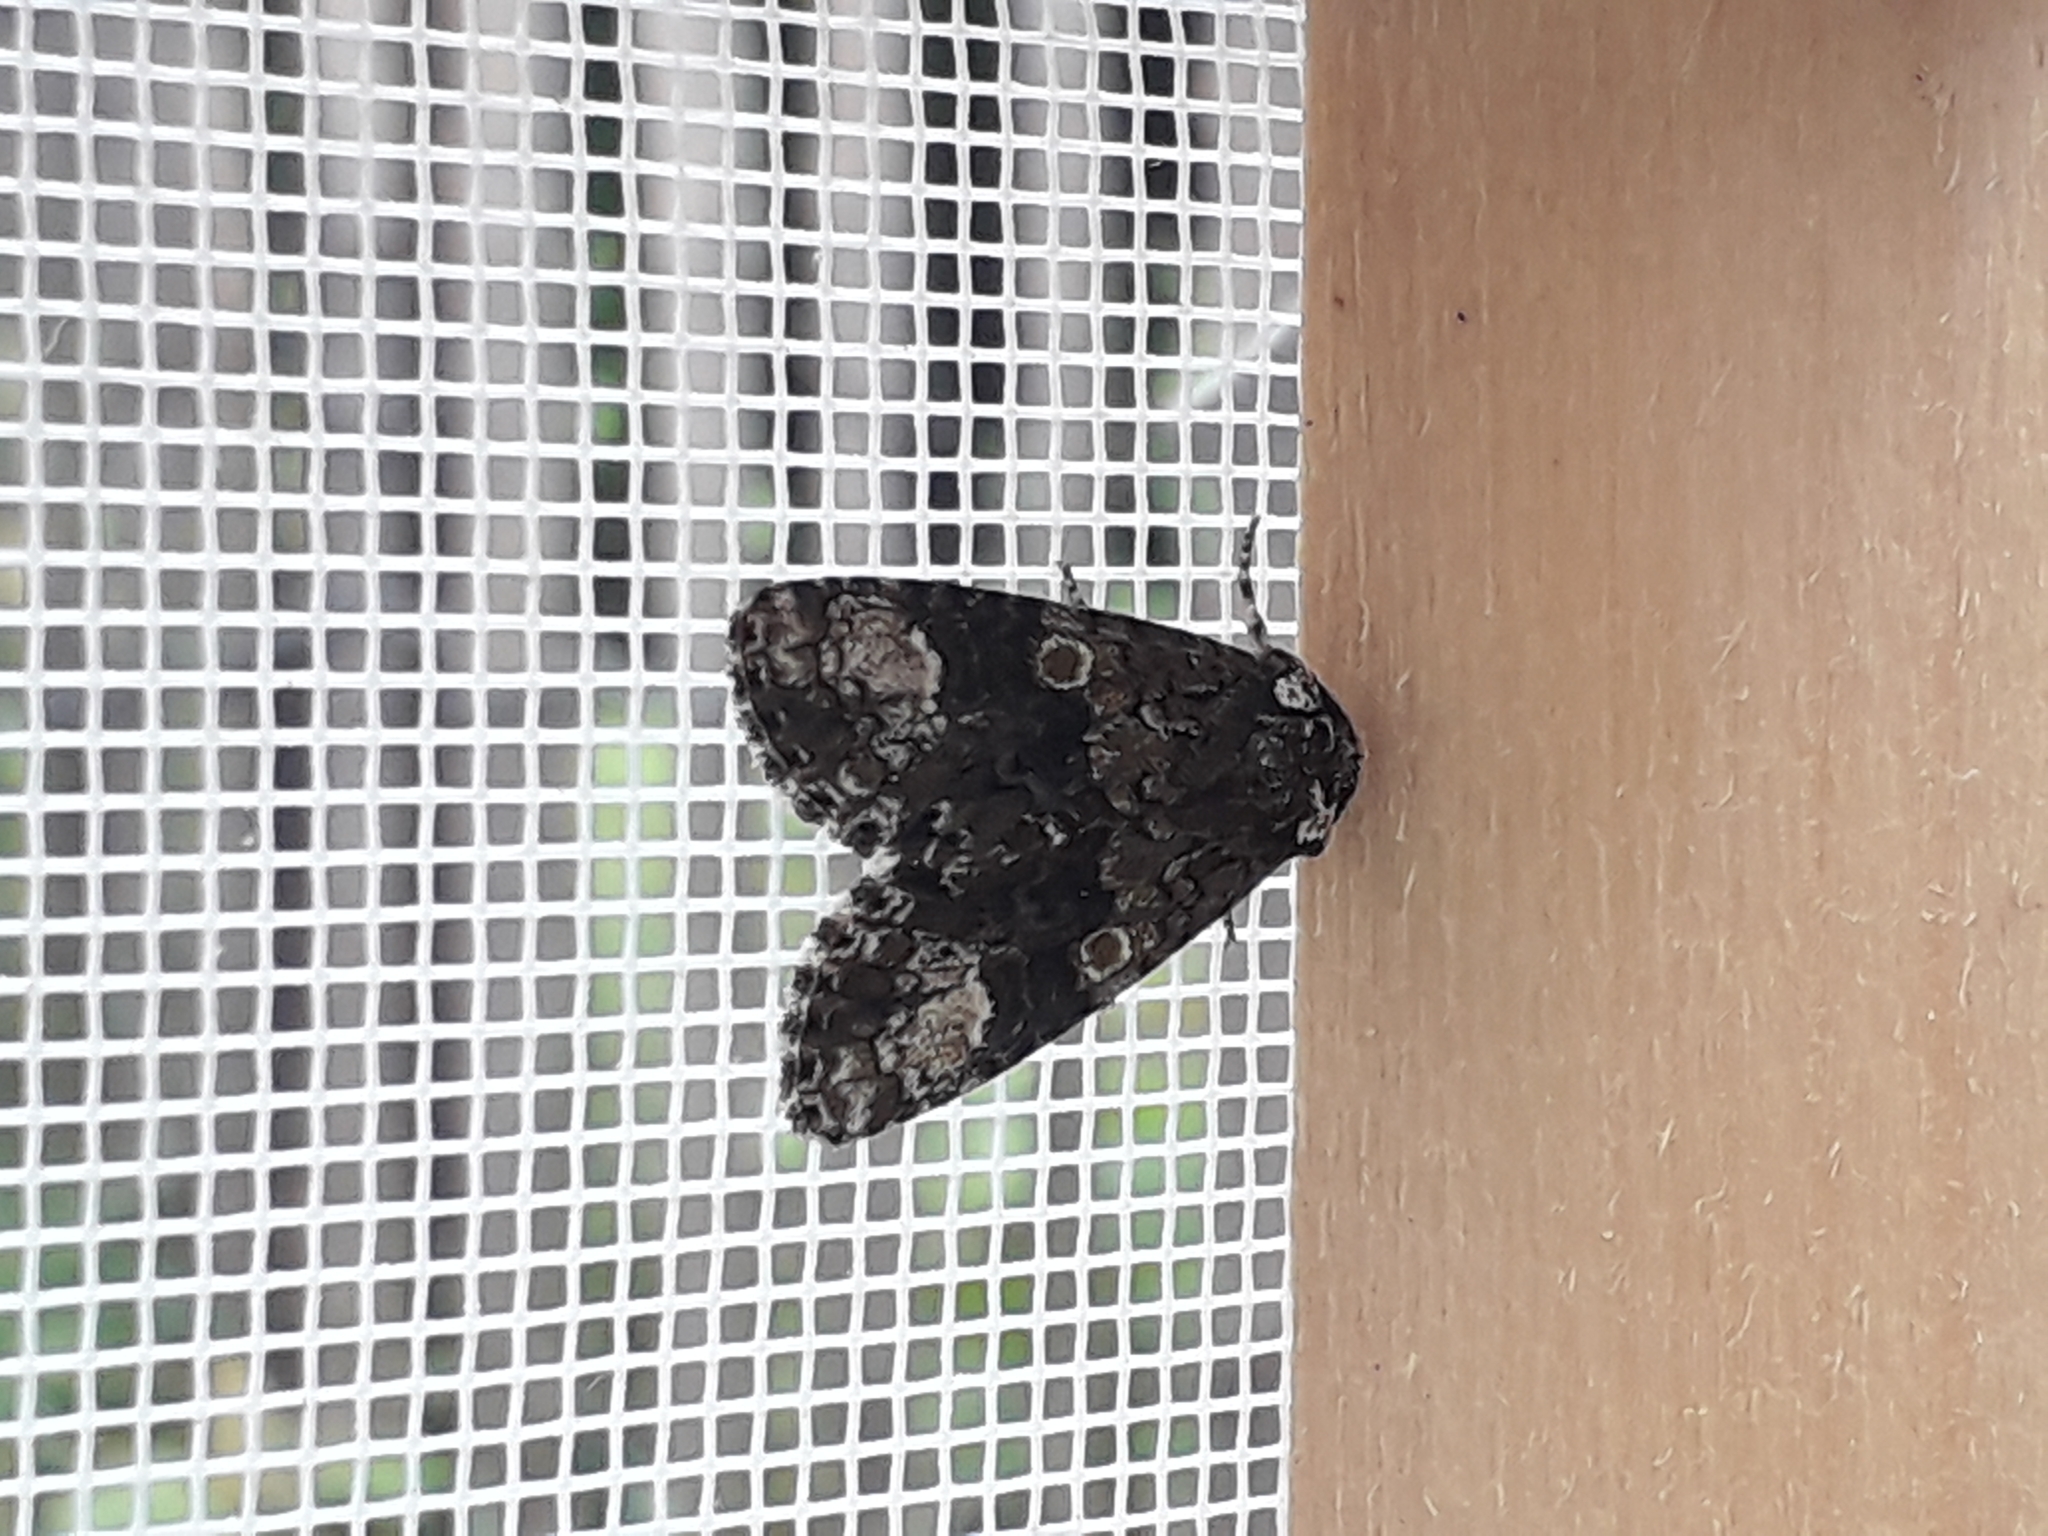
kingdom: Animalia
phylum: Arthropoda
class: Insecta
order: Lepidoptera
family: Noctuidae
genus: Craniophora
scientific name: Craniophora ligustri
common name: Coronet
